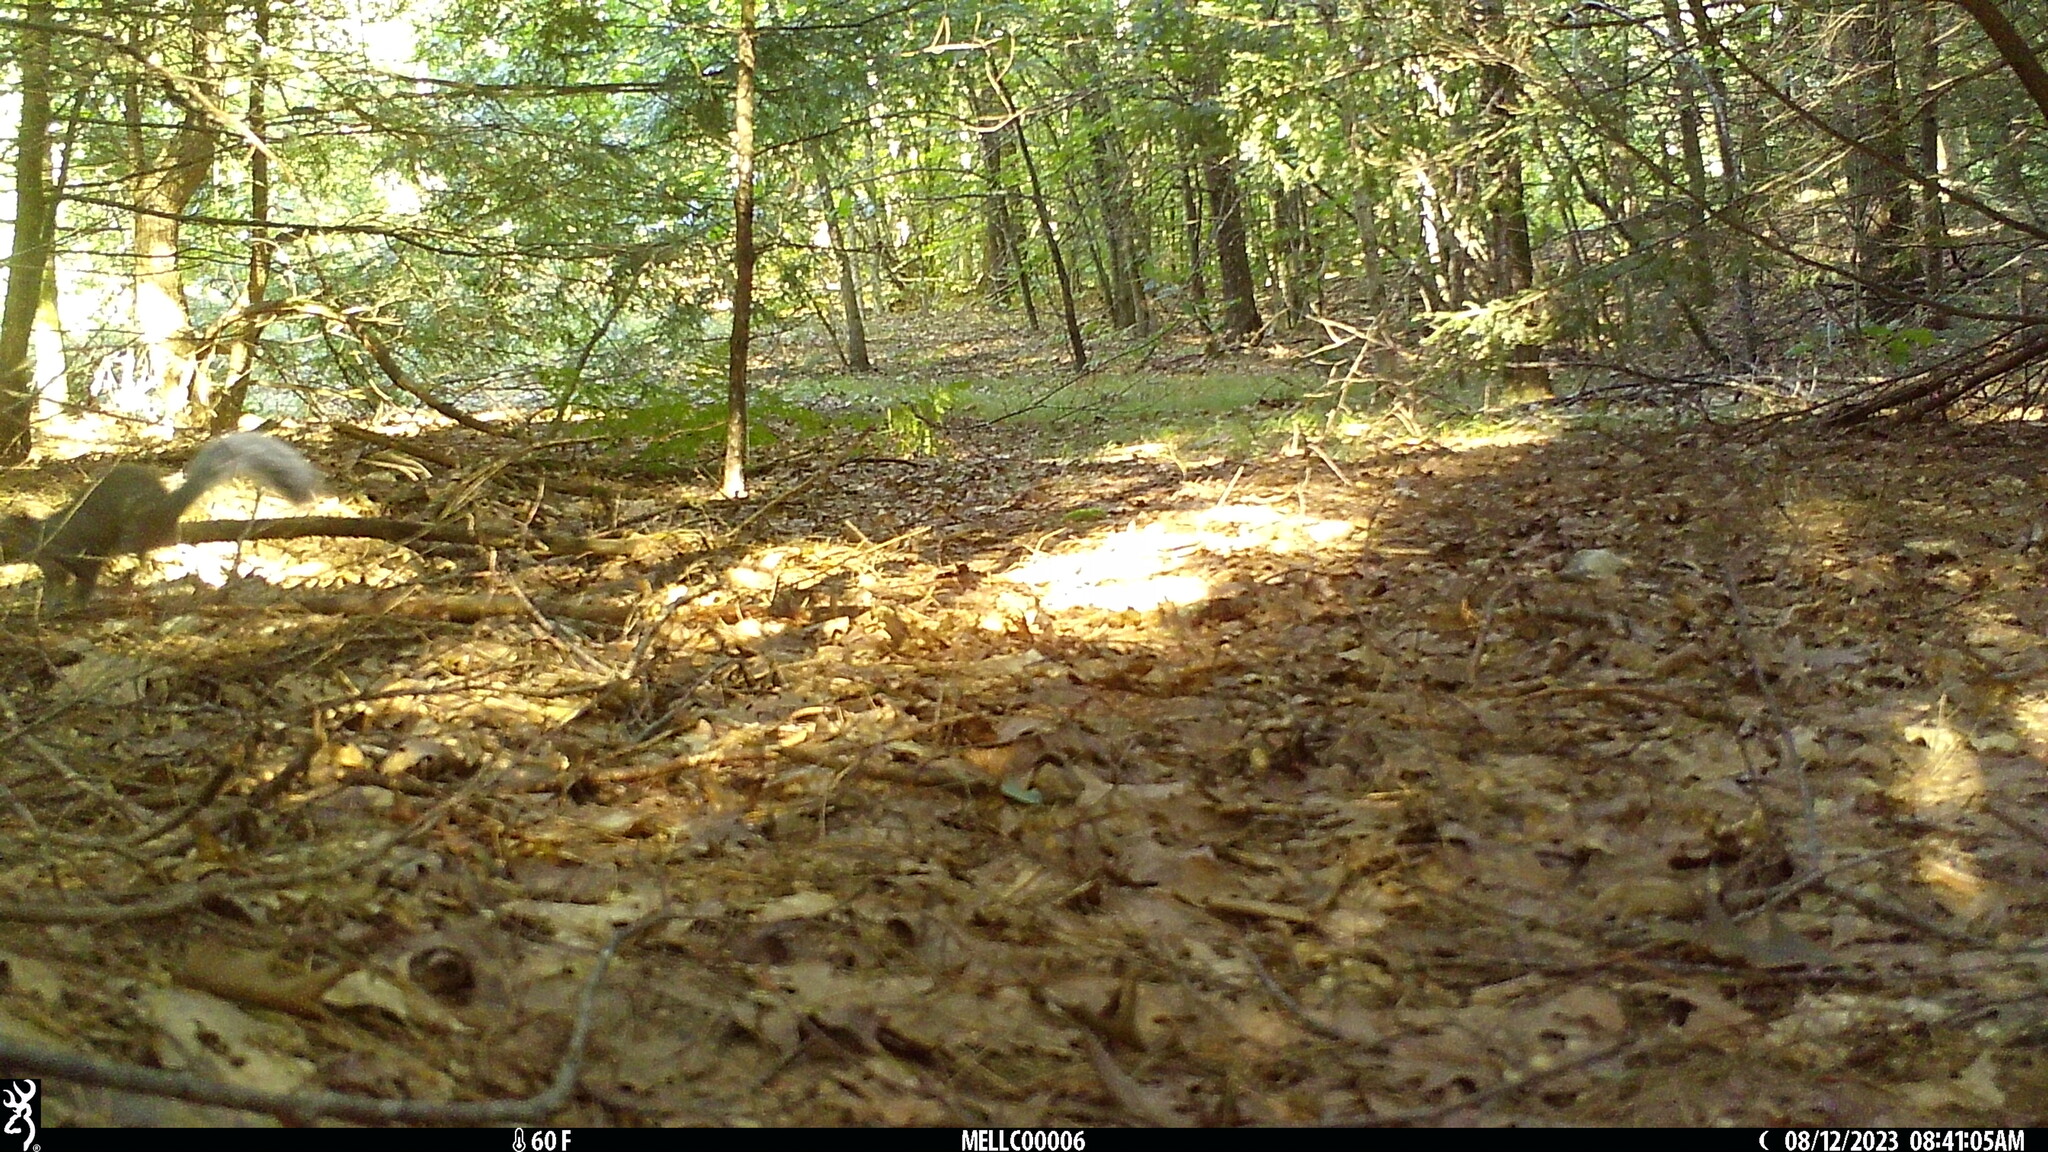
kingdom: Animalia
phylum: Chordata
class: Mammalia
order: Rodentia
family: Sciuridae
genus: Sciurus
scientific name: Sciurus carolinensis
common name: Eastern gray squirrel
